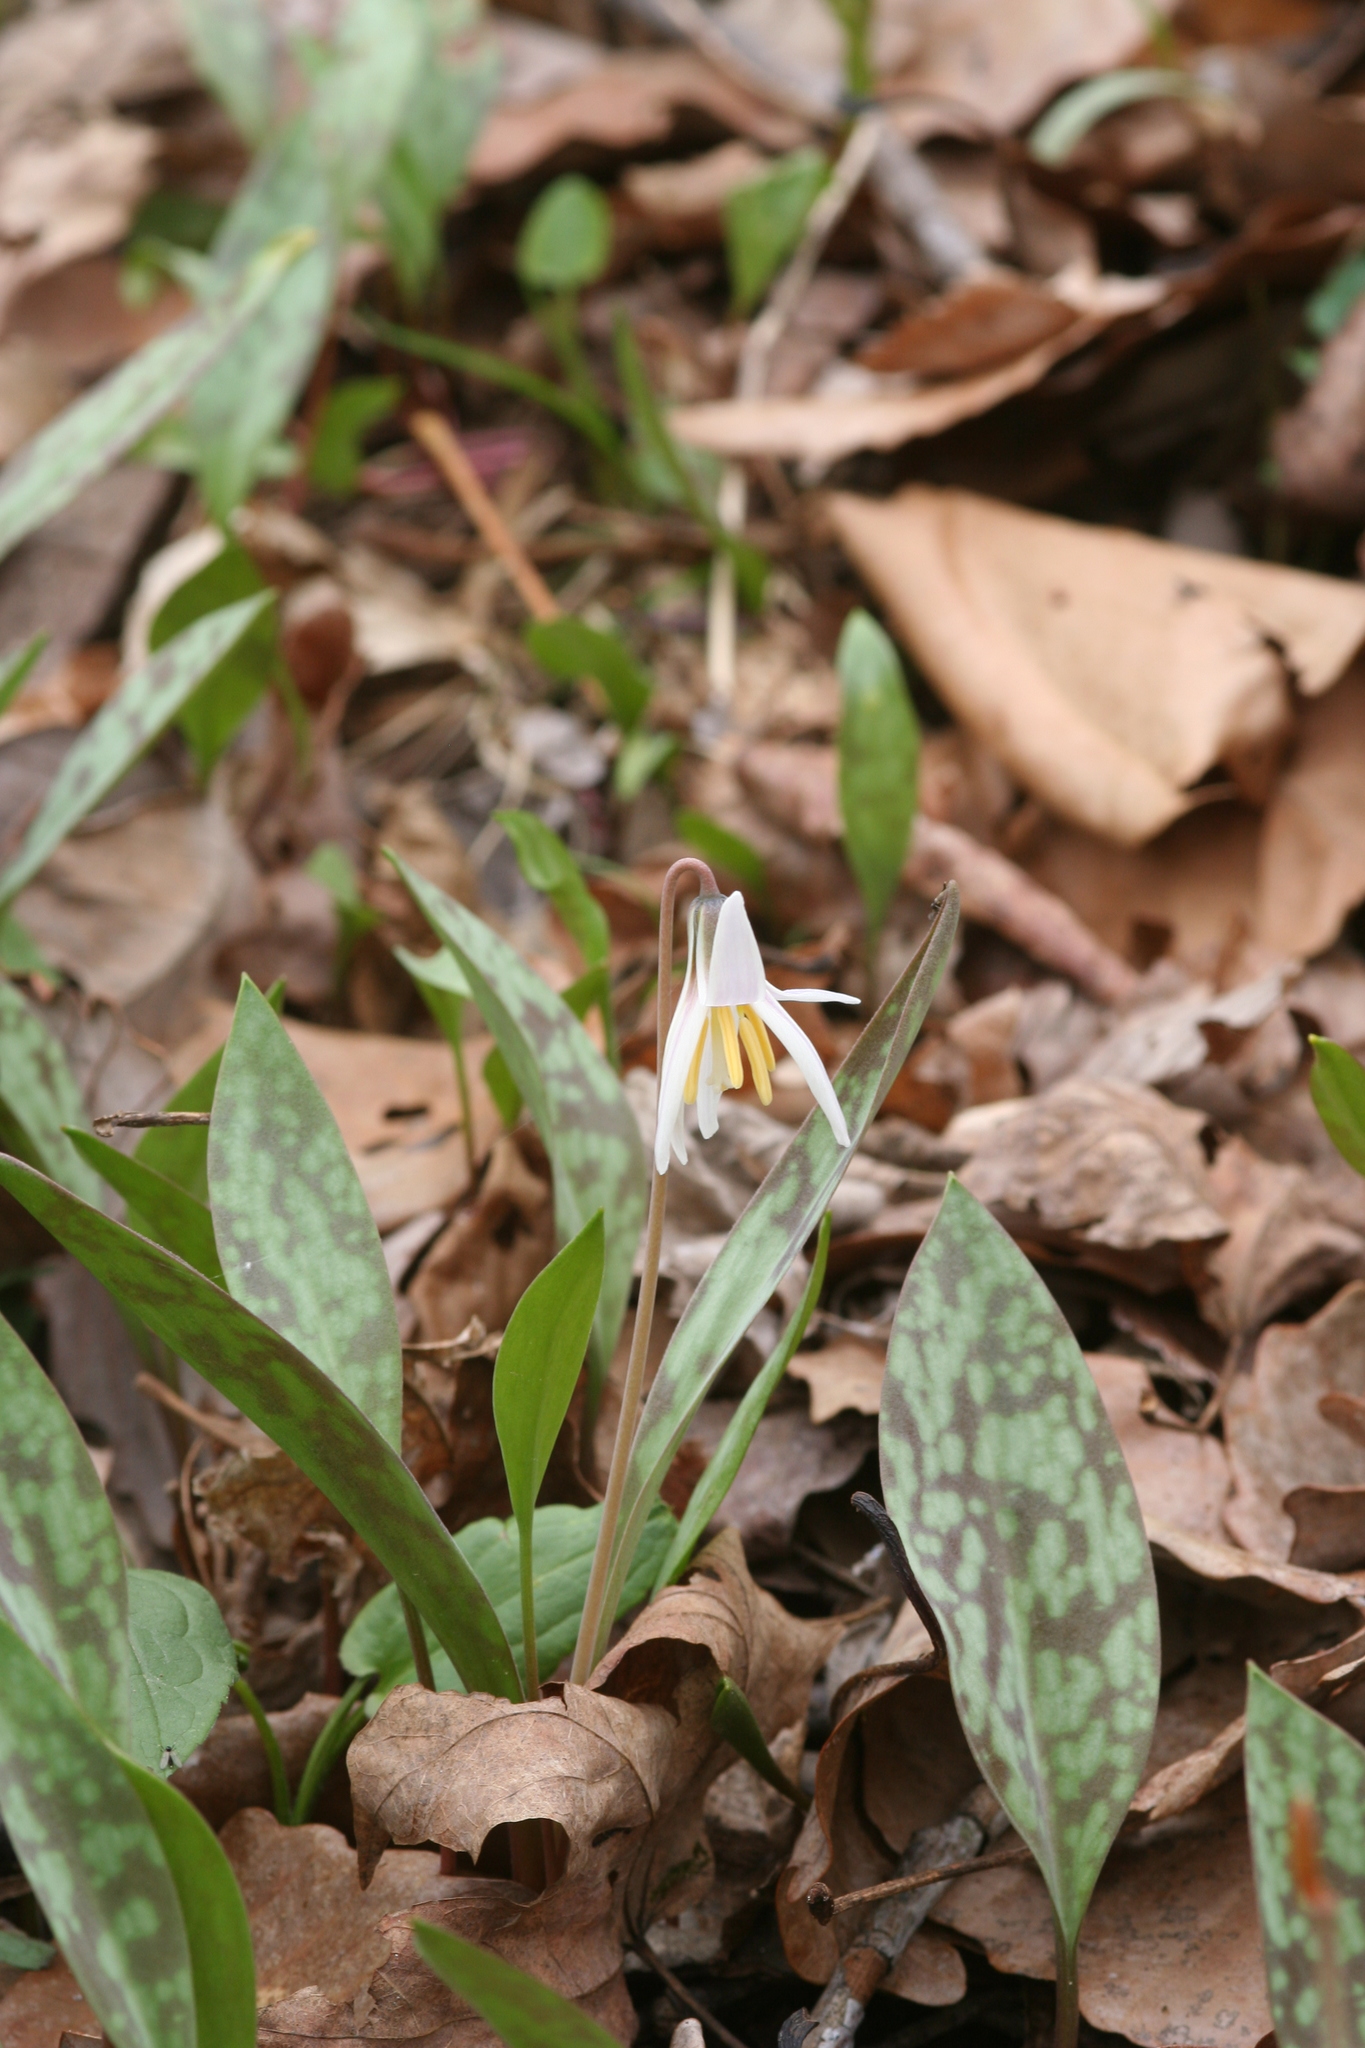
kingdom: Plantae
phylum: Tracheophyta
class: Liliopsida
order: Liliales
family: Liliaceae
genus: Erythronium
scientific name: Erythronium albidum
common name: White trout-lily
